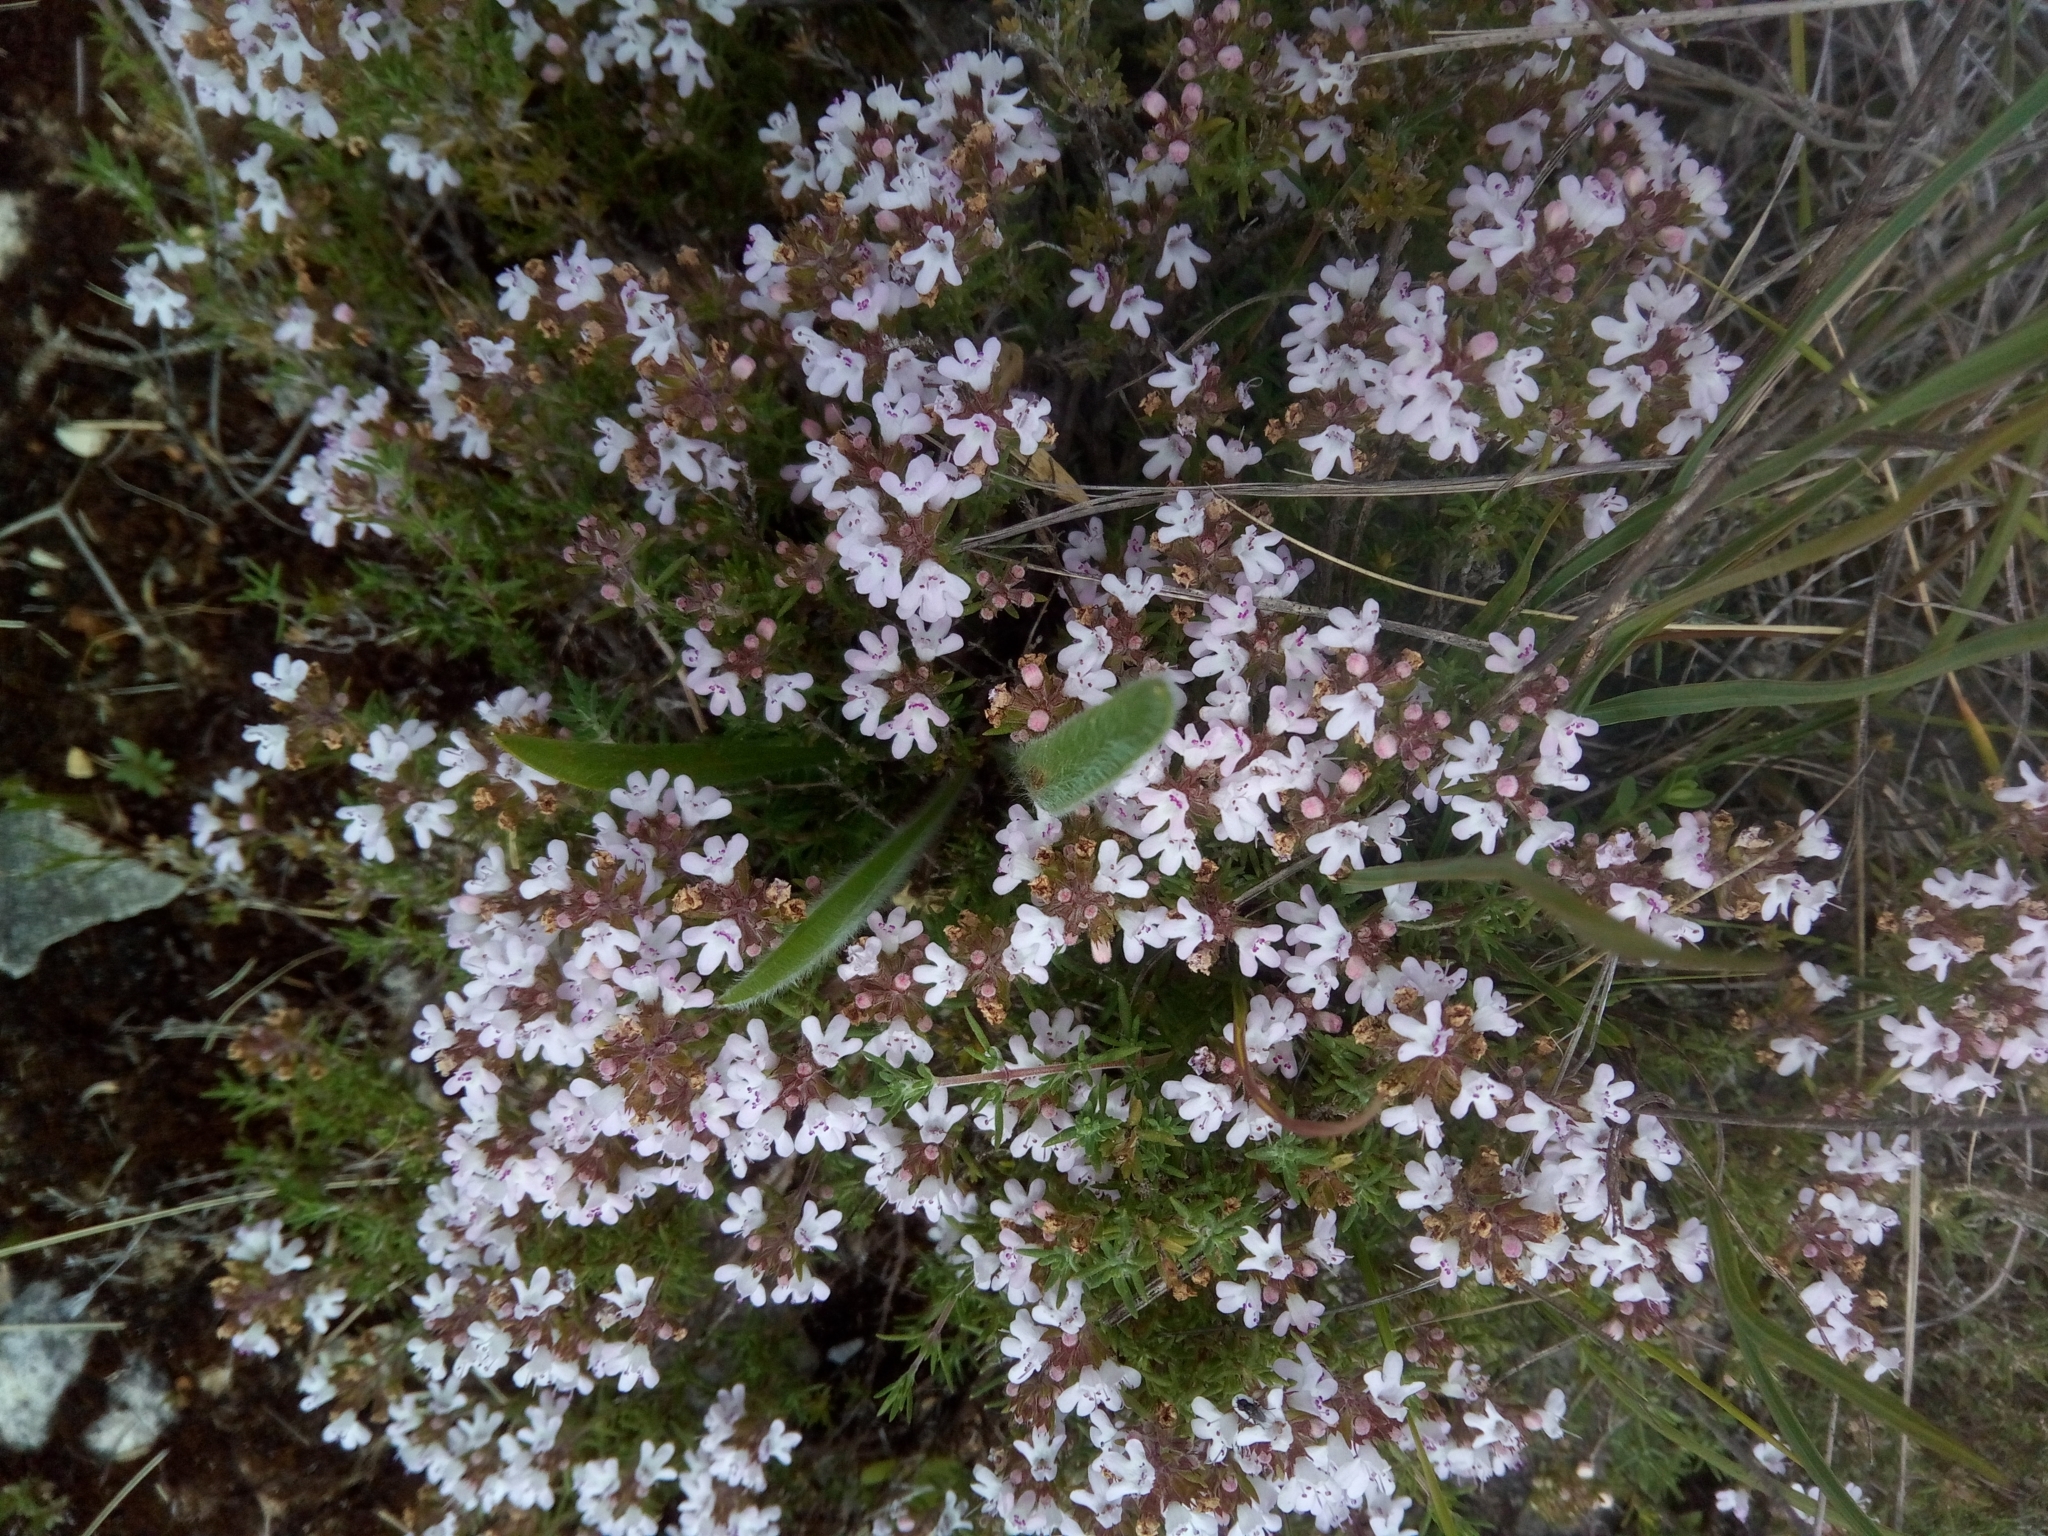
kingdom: Plantae
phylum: Tracheophyta
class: Magnoliopsida
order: Lamiales
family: Lamiaceae
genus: Thymus
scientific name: Thymus zygis
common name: White thyme
